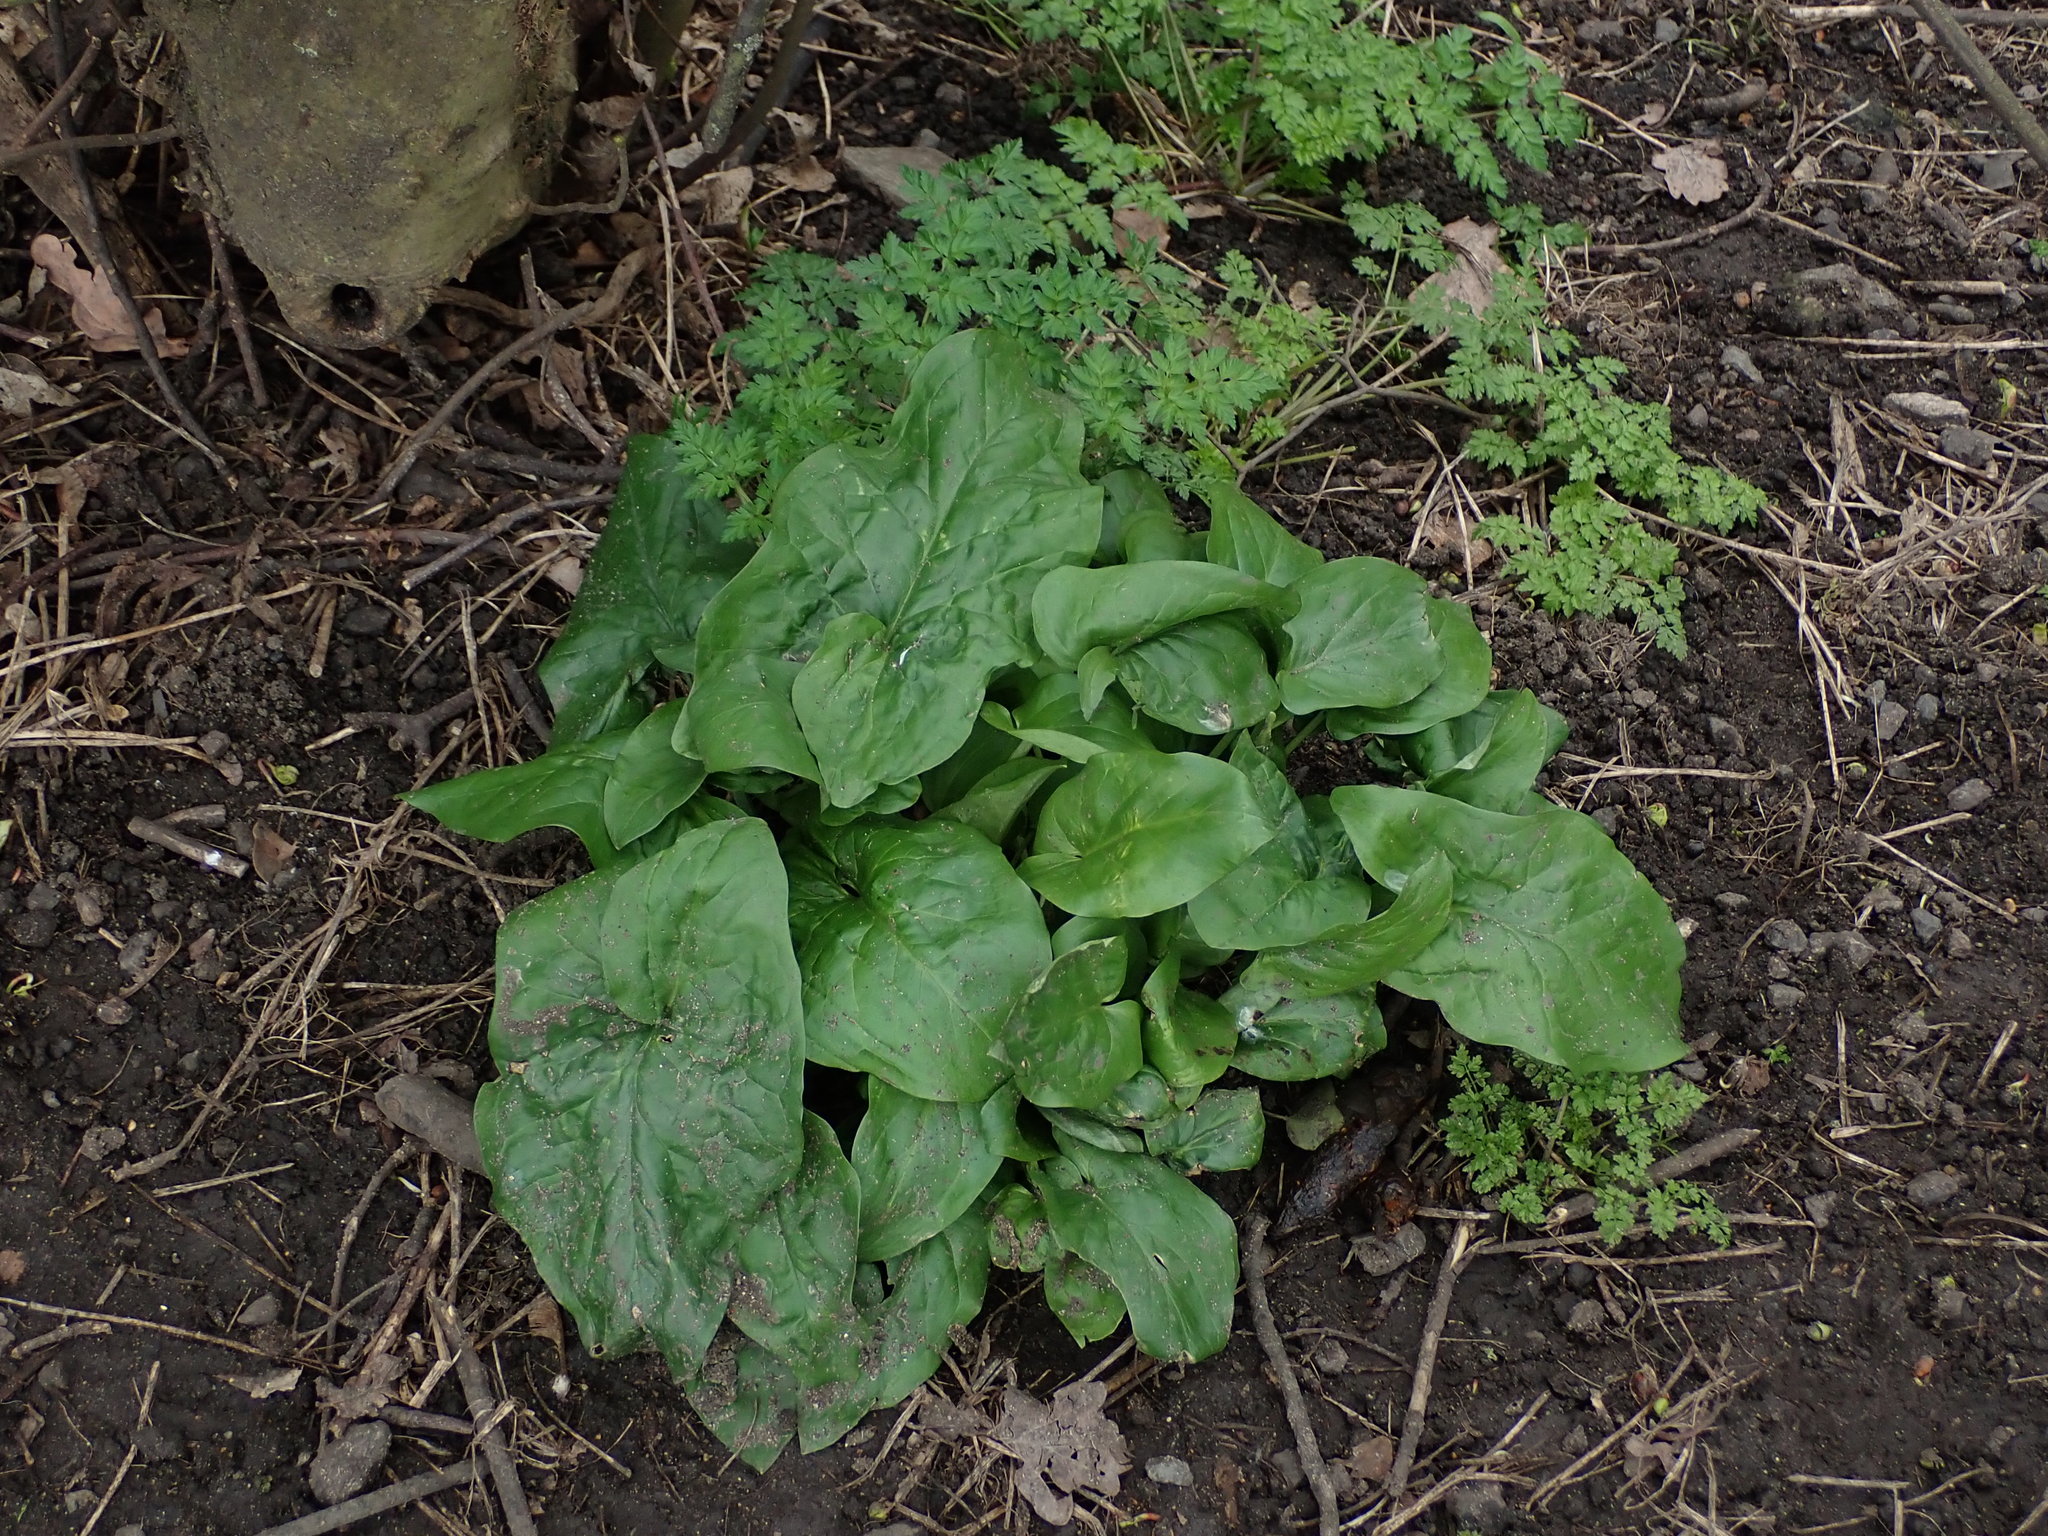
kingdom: Plantae
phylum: Tracheophyta
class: Liliopsida
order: Alismatales
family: Araceae
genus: Arum
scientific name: Arum maculatum
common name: Lords-and-ladies
